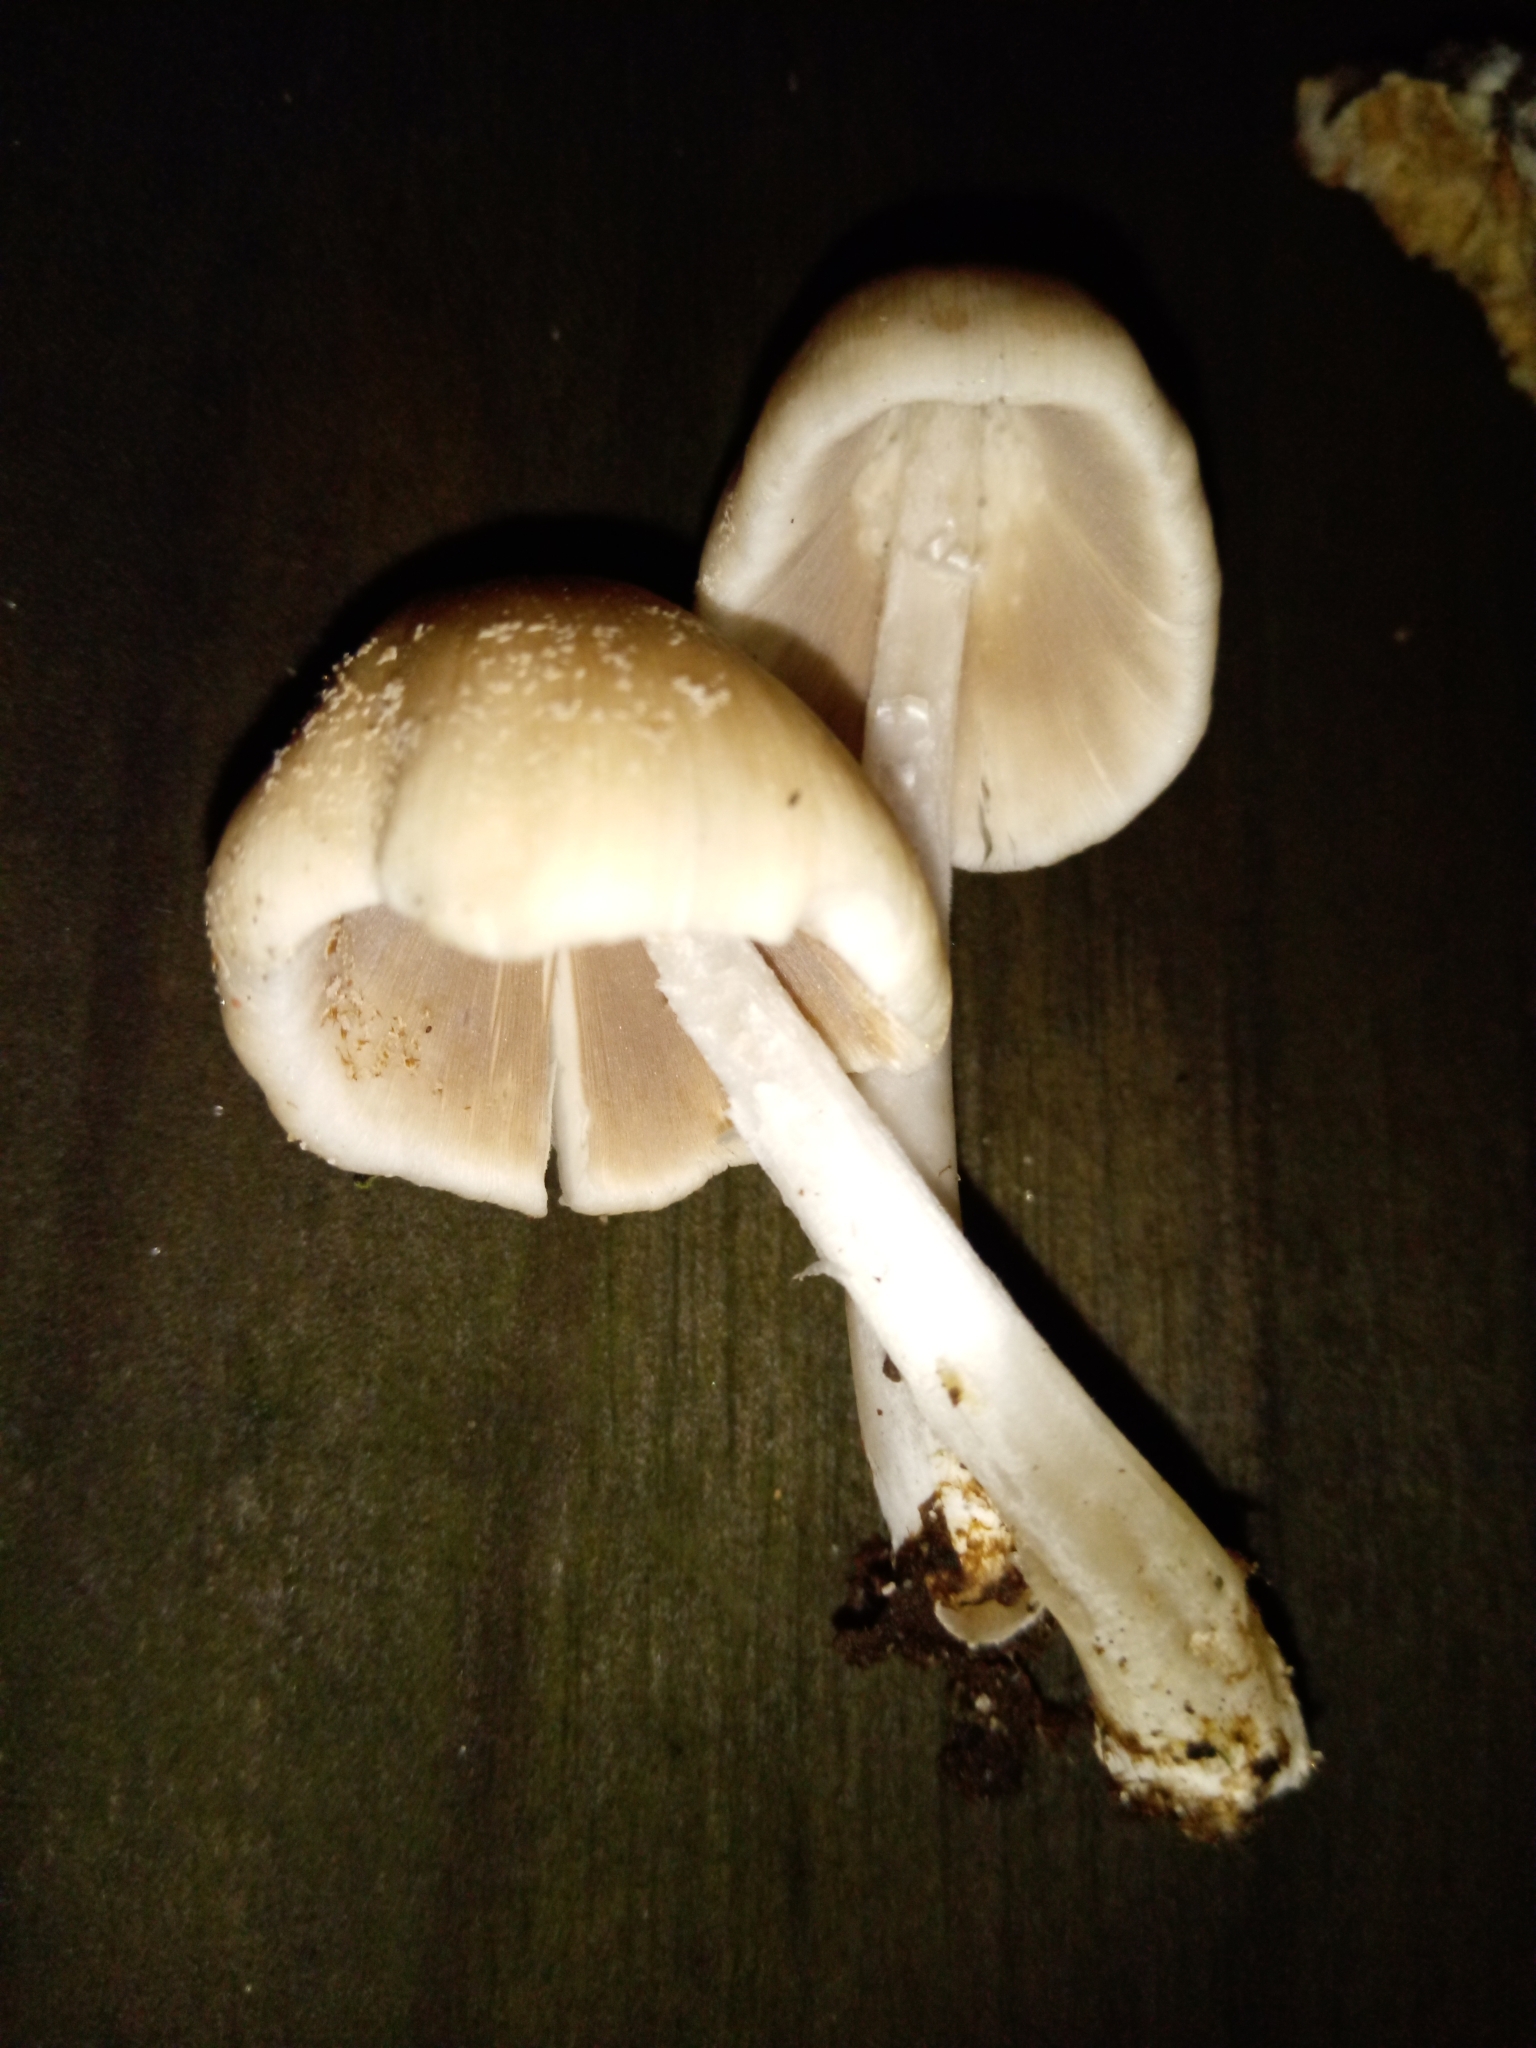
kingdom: Fungi
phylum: Basidiomycota
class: Agaricomycetes
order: Agaricales
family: Psathyrellaceae
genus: Coprinellus
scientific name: Coprinellus radians
